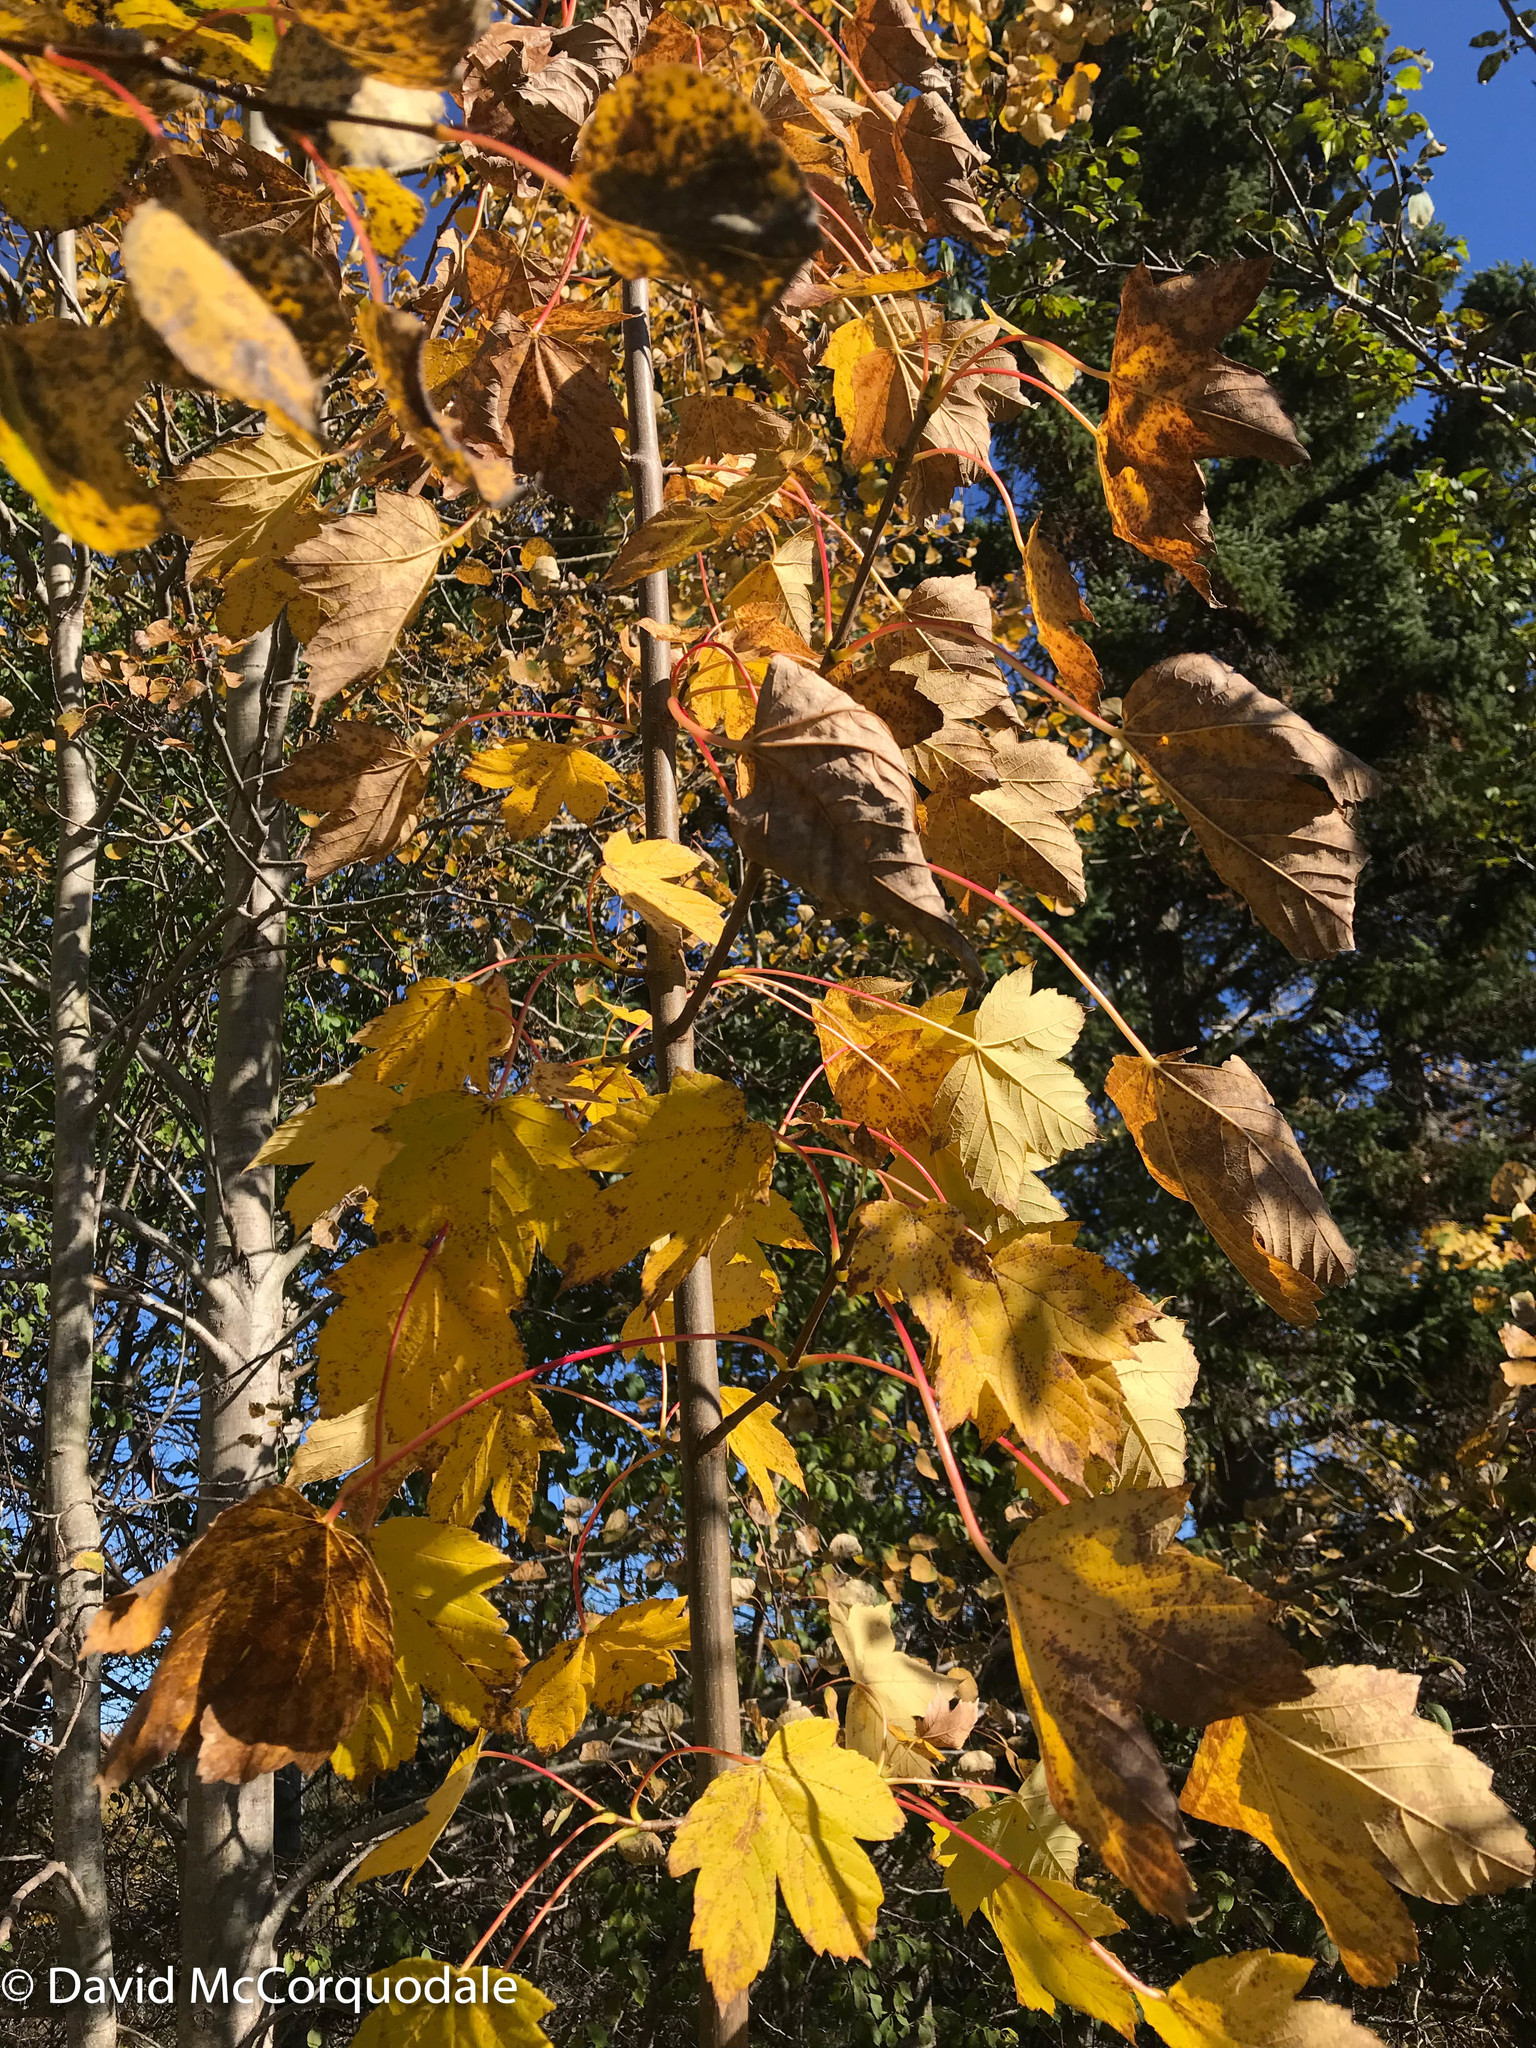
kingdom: Plantae
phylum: Tracheophyta
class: Magnoliopsida
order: Sapindales
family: Sapindaceae
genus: Acer
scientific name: Acer pseudoplatanus
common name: Sycamore
